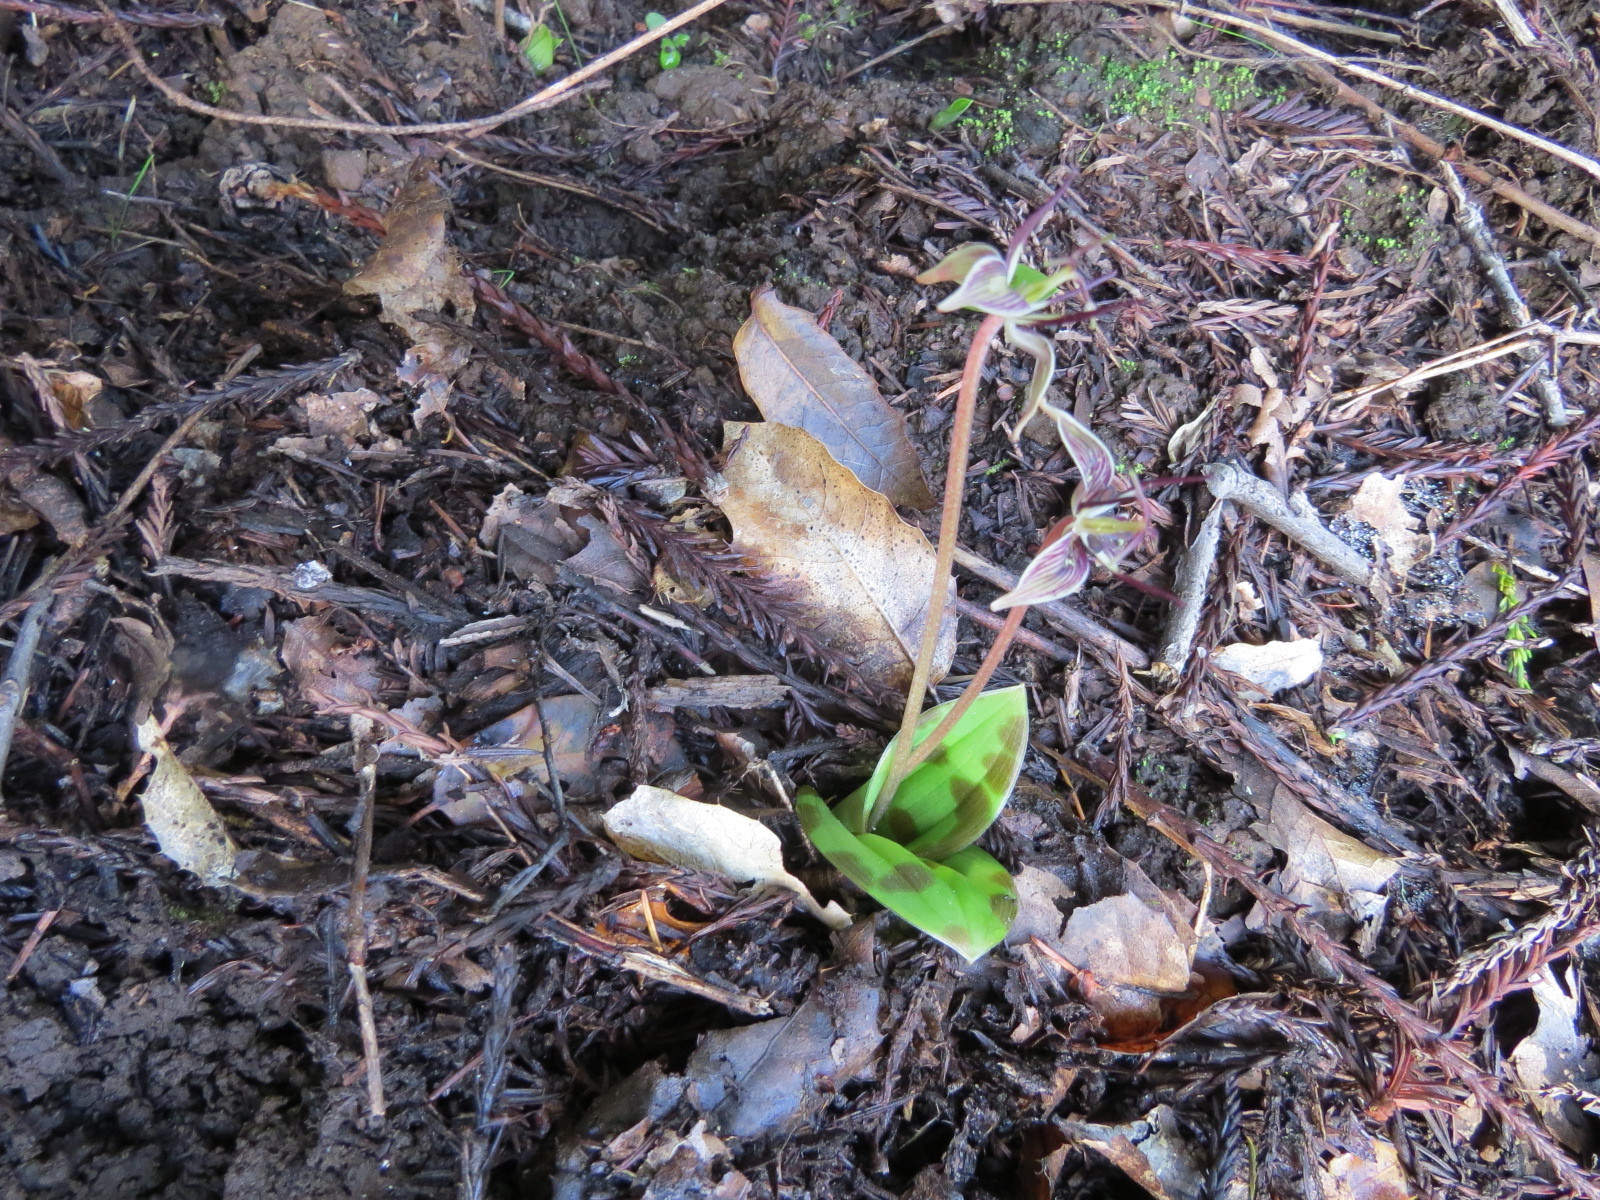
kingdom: Plantae
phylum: Tracheophyta
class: Liliopsida
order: Liliales
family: Liliaceae
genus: Scoliopus
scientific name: Scoliopus bigelovii
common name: Foetid adder's-tongue
